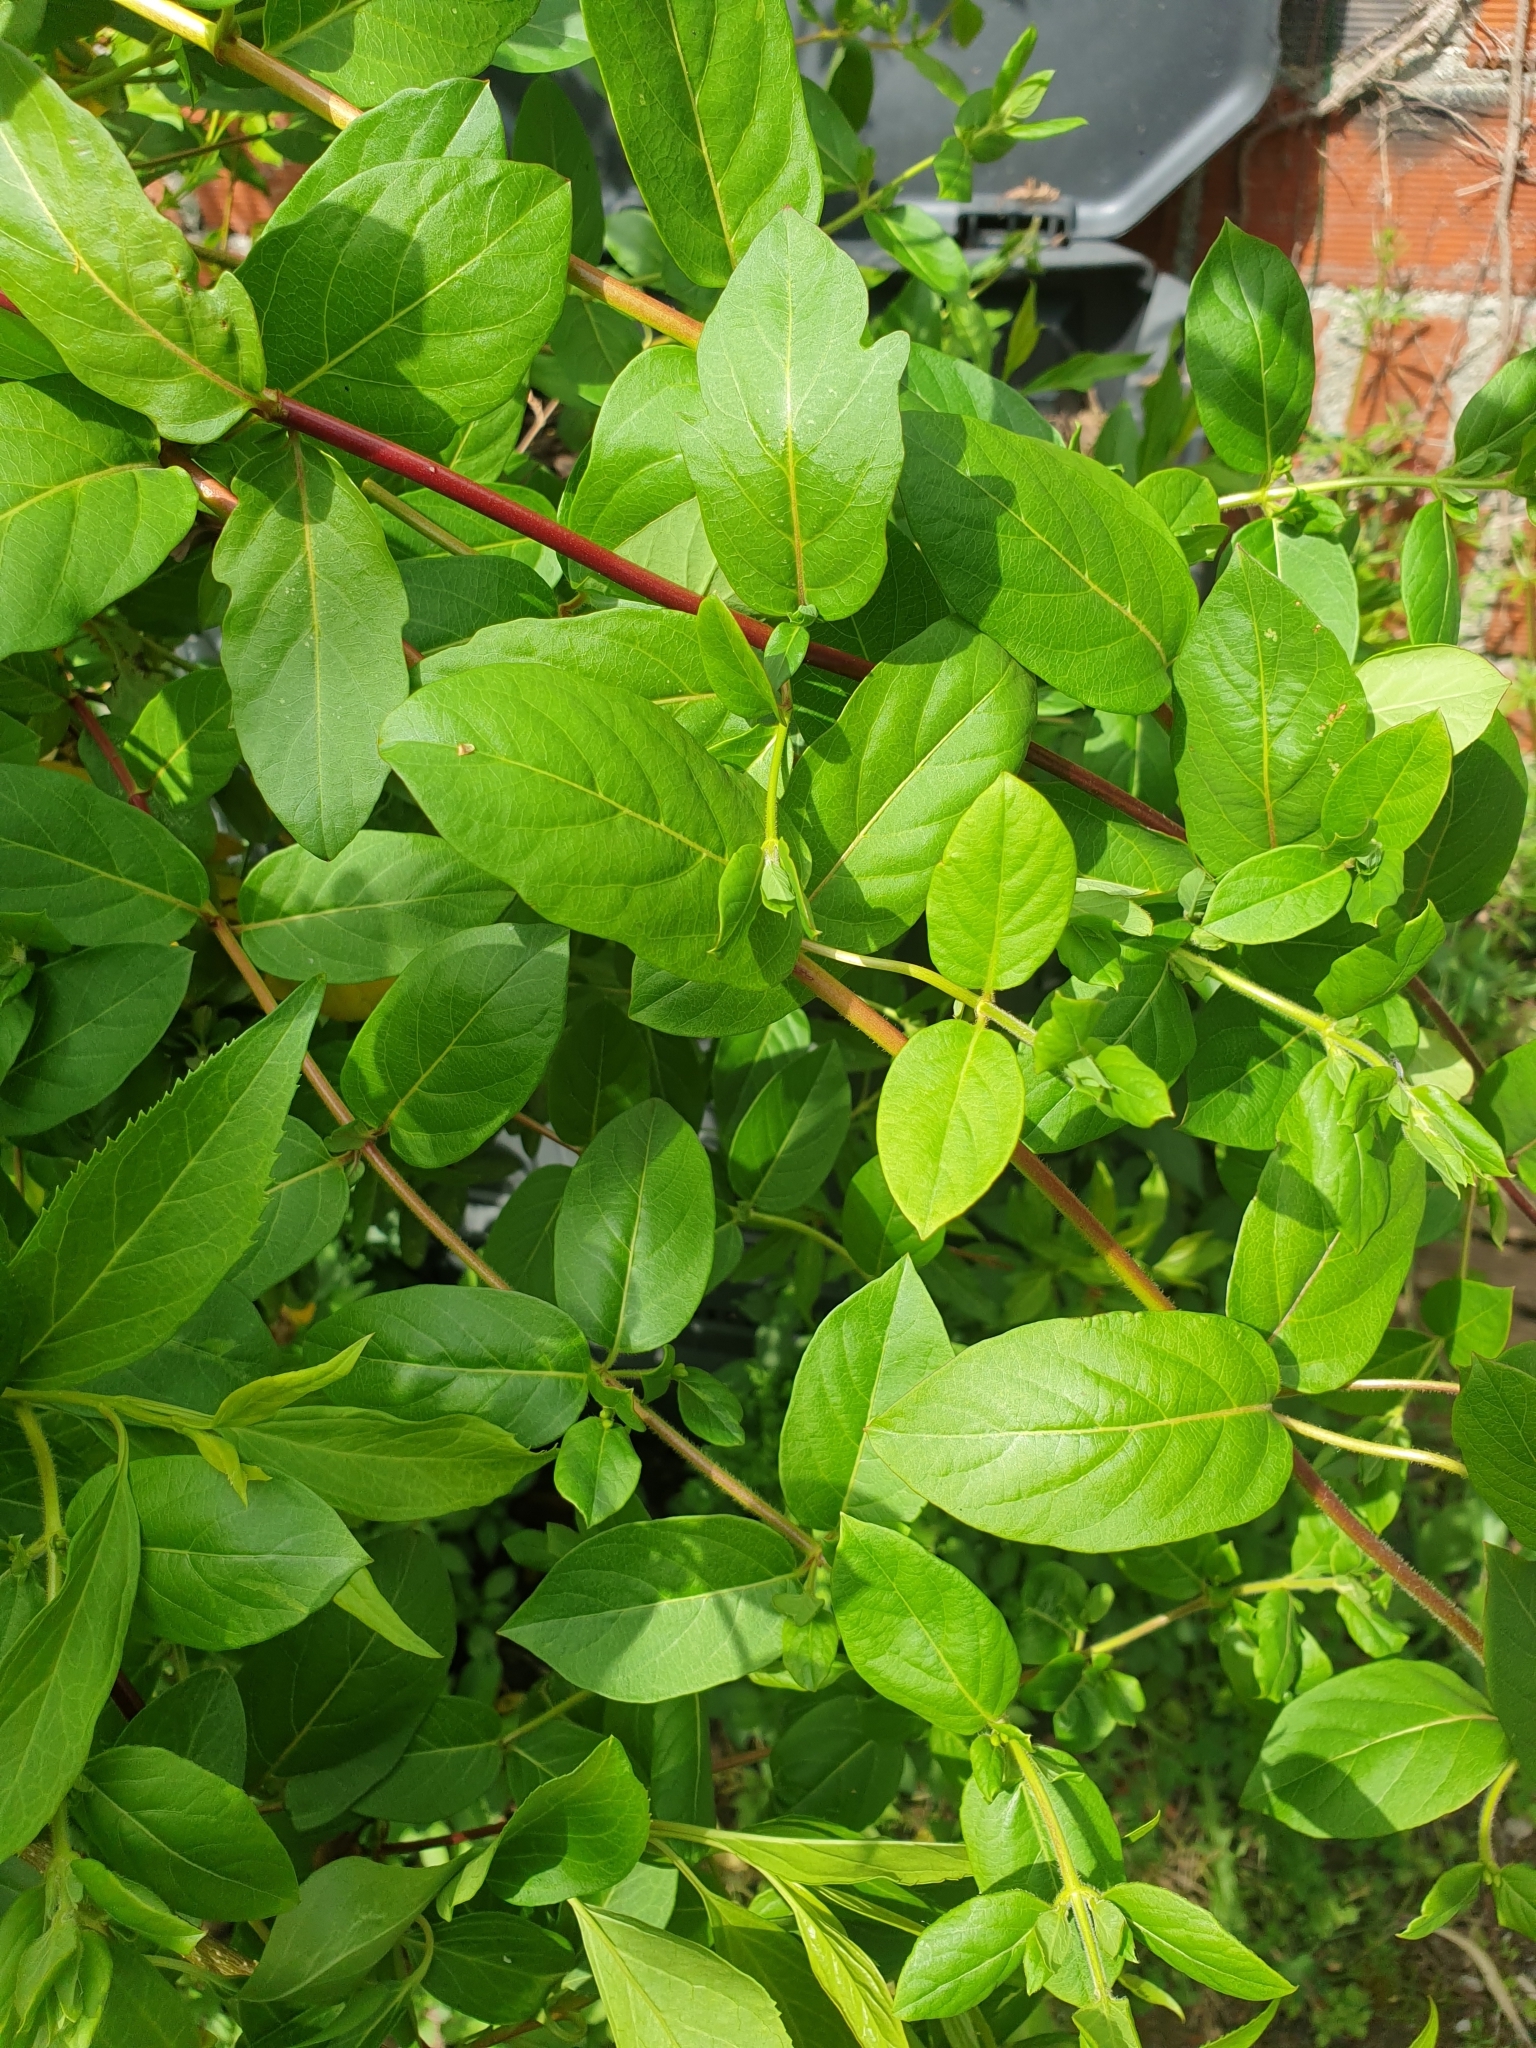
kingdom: Plantae
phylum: Tracheophyta
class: Magnoliopsida
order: Dipsacales
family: Caprifoliaceae
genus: Lonicera
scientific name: Lonicera japonica
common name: Japanese honeysuckle
